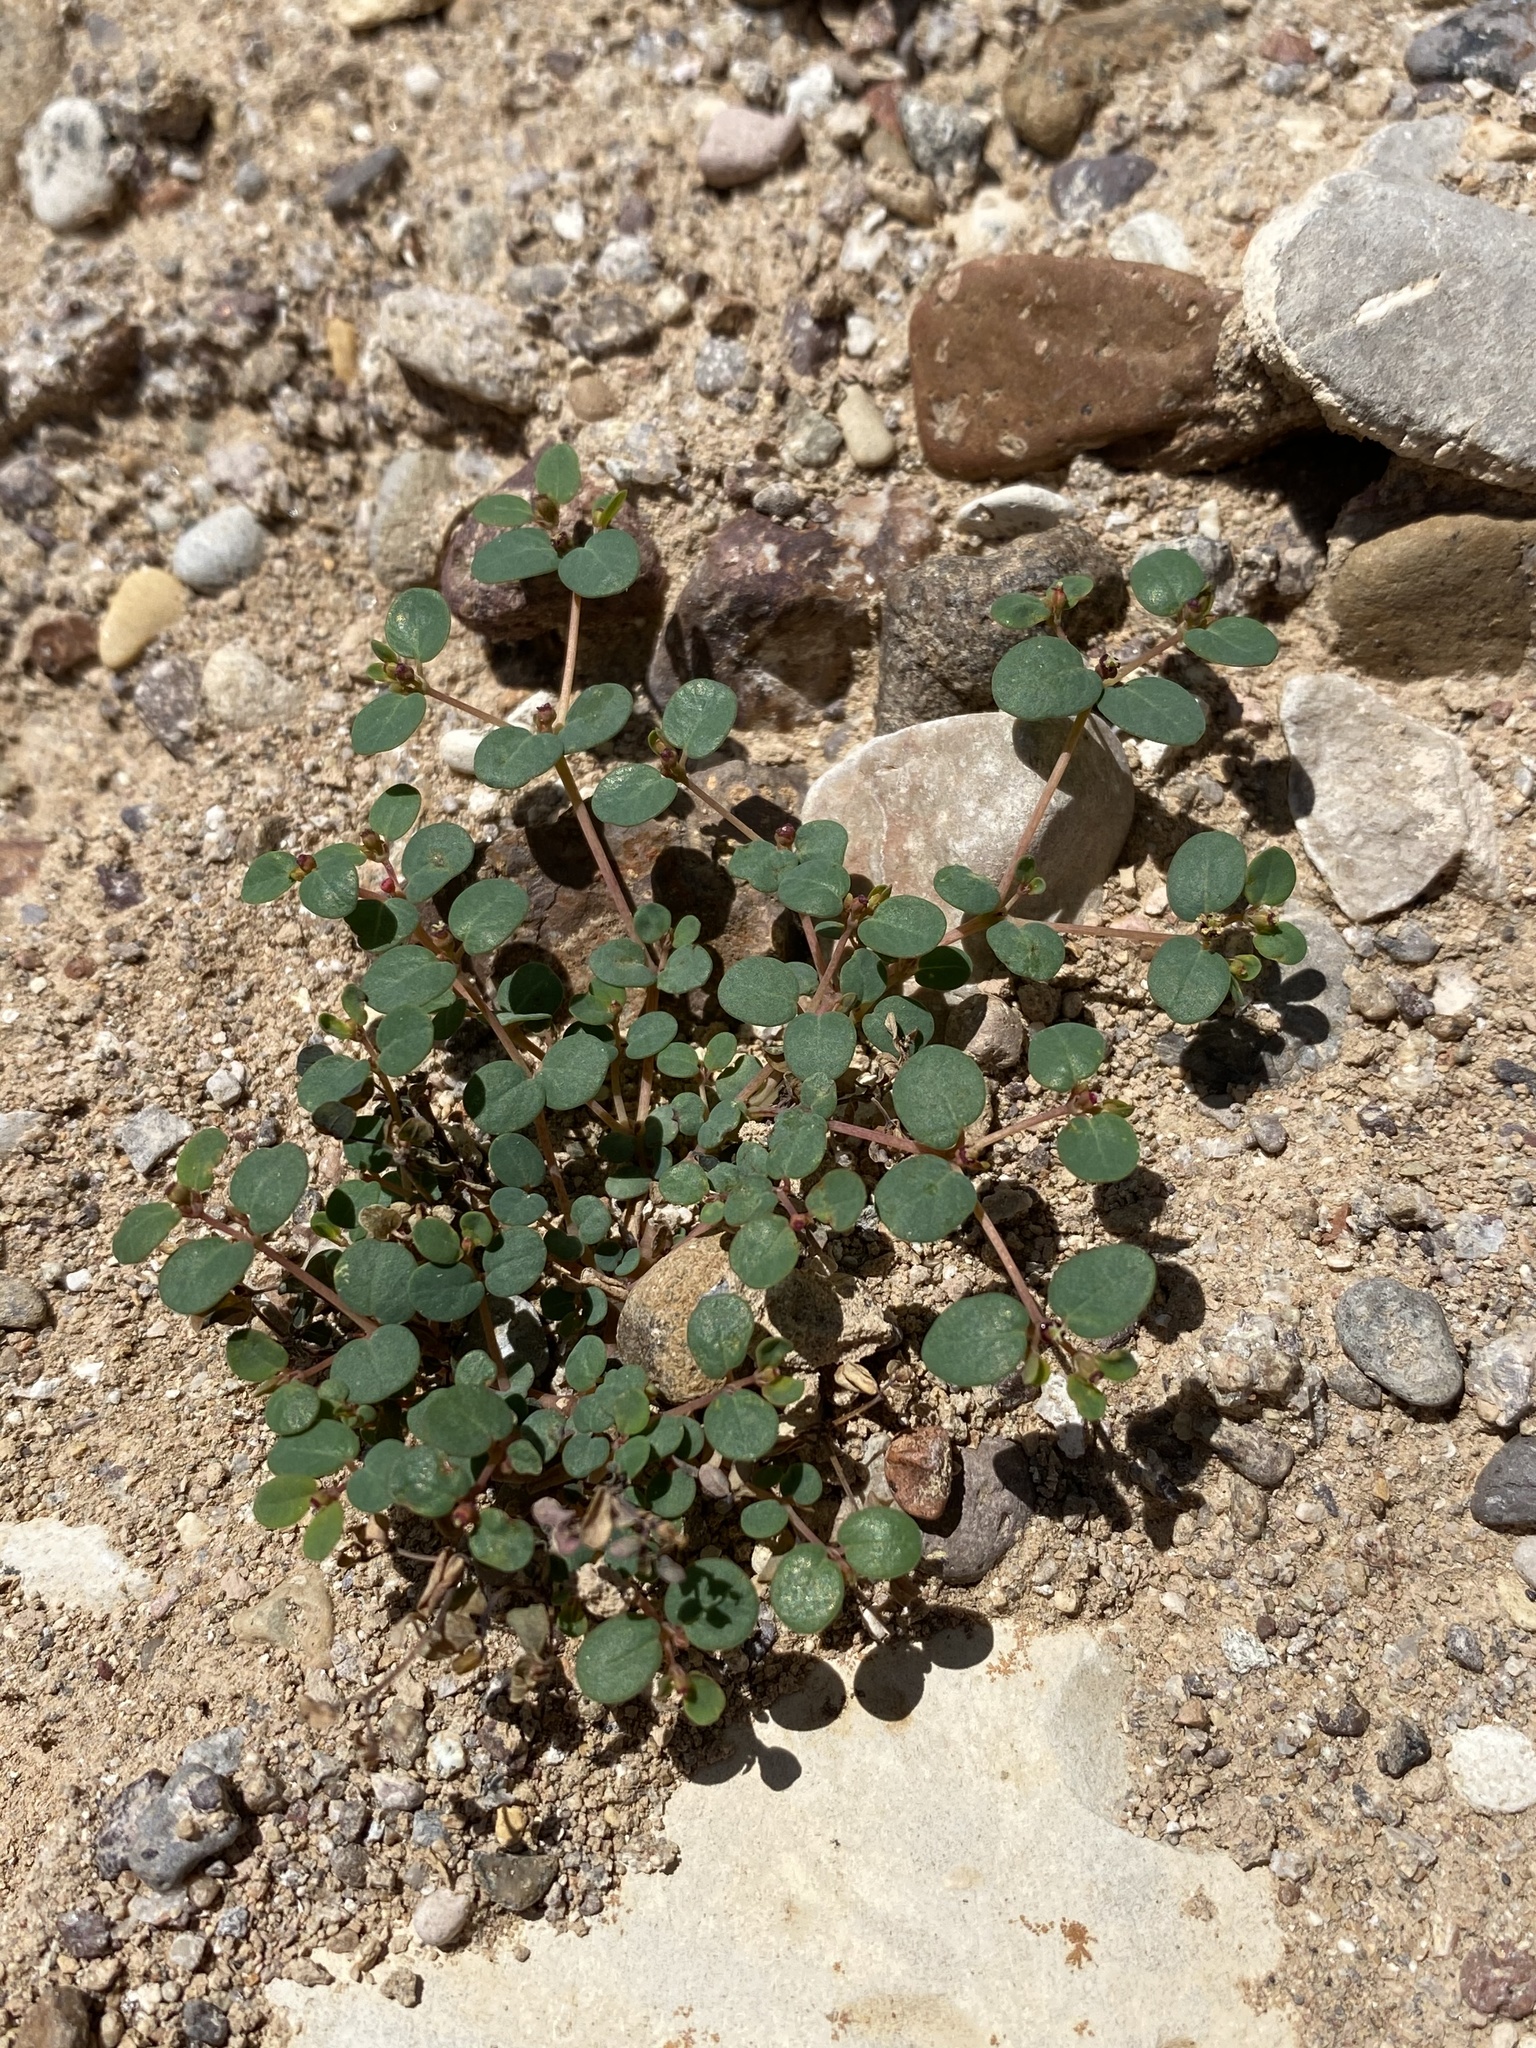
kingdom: Plantae
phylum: Tracheophyta
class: Magnoliopsida
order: Malpighiales
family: Euphorbiaceae
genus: Euphorbia
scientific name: Euphorbia simulans
